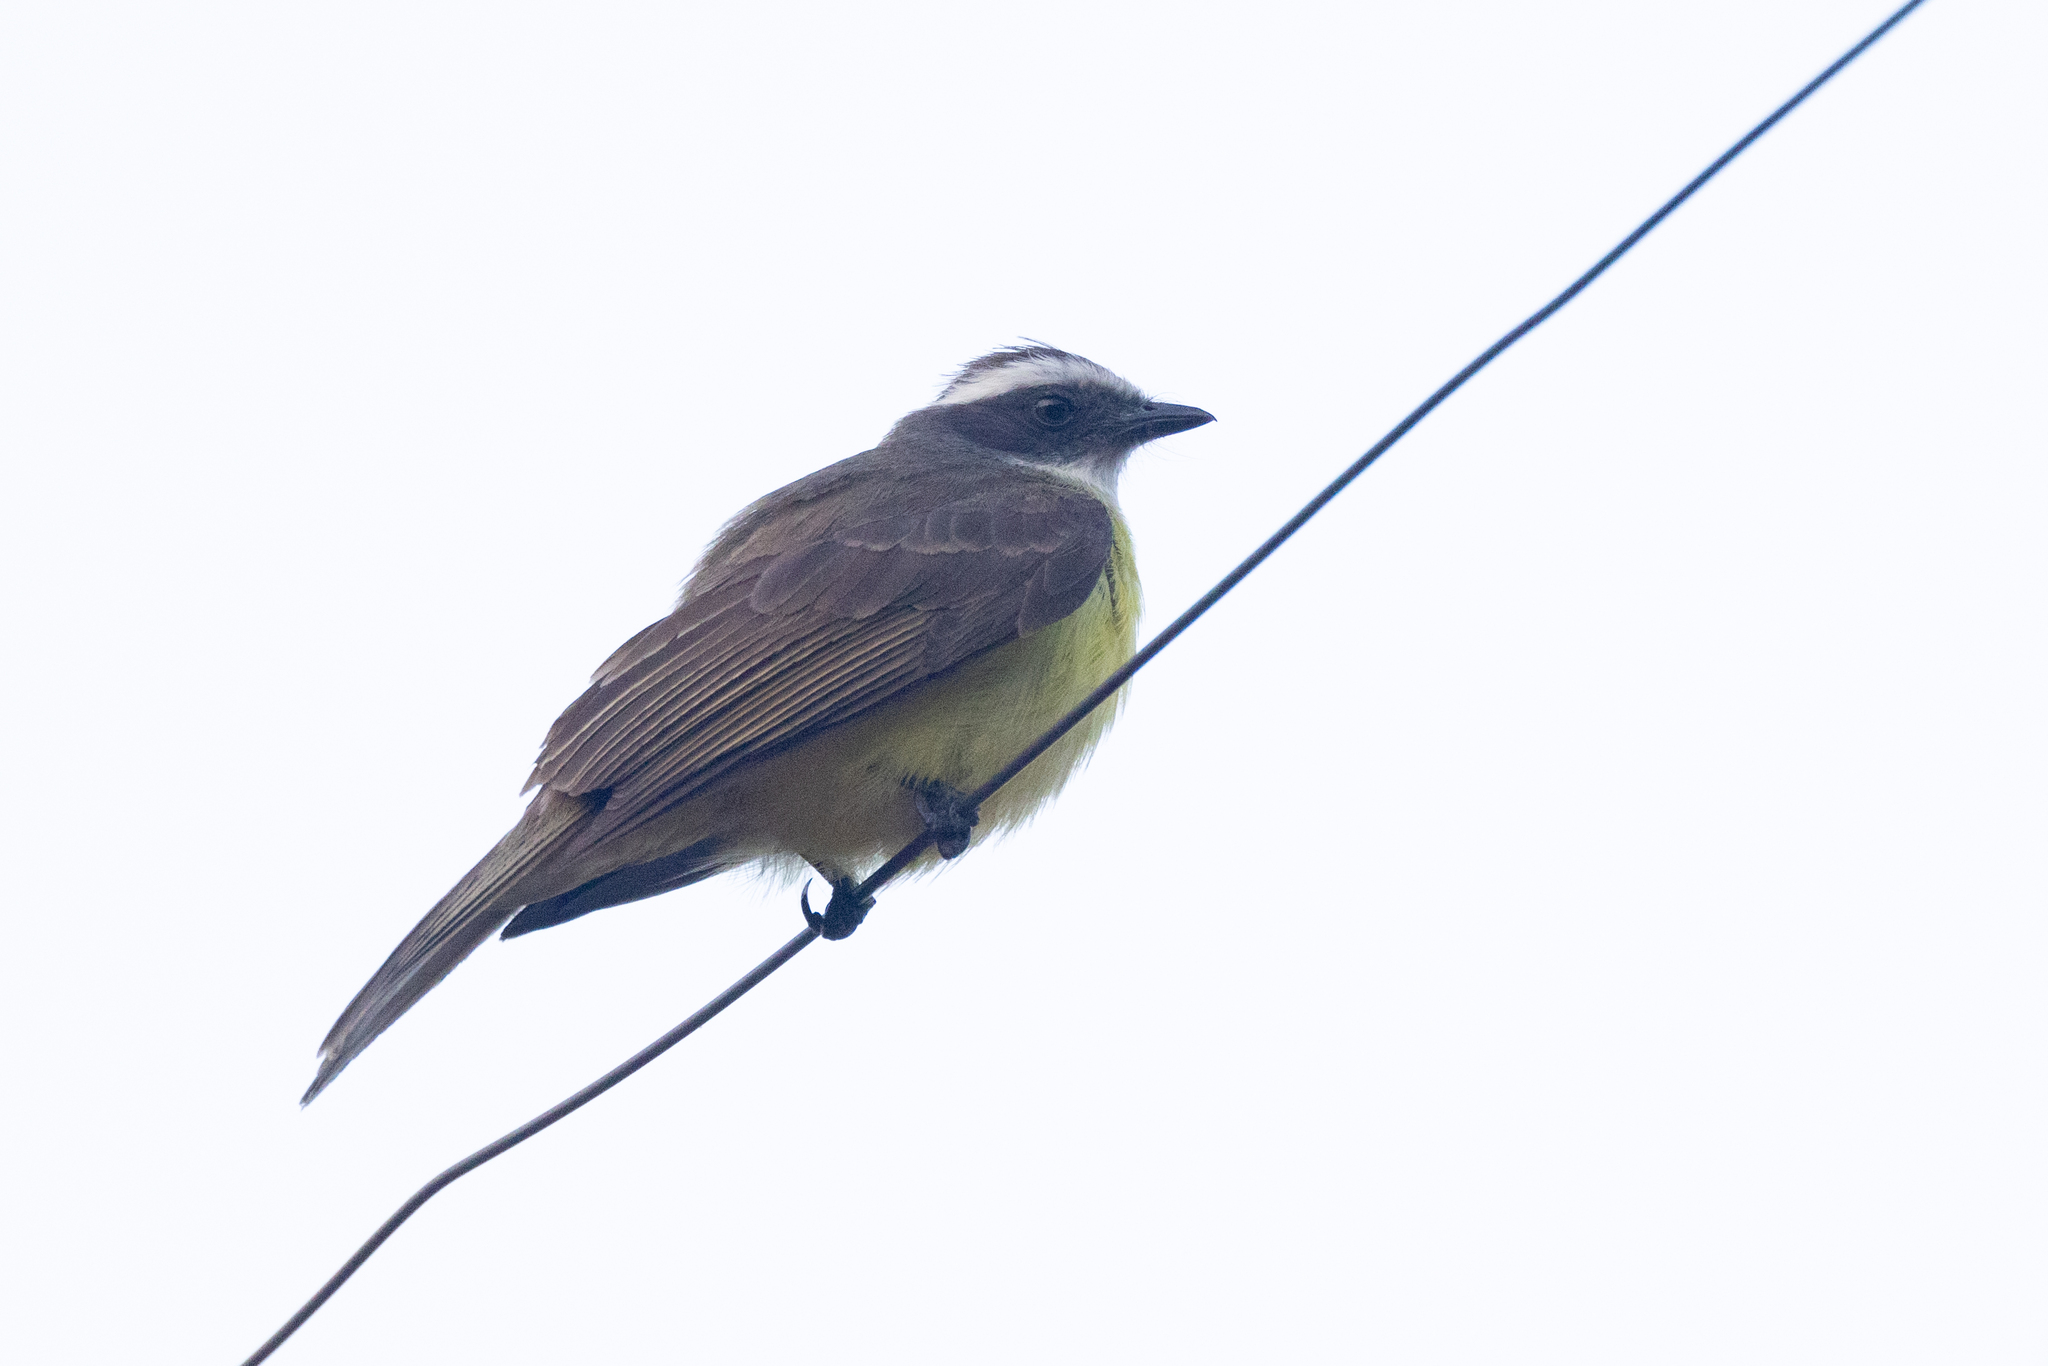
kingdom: Animalia
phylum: Chordata
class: Aves
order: Passeriformes
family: Tyrannidae
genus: Myiozetetes
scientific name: Myiozetetes similis
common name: Social flycatcher
